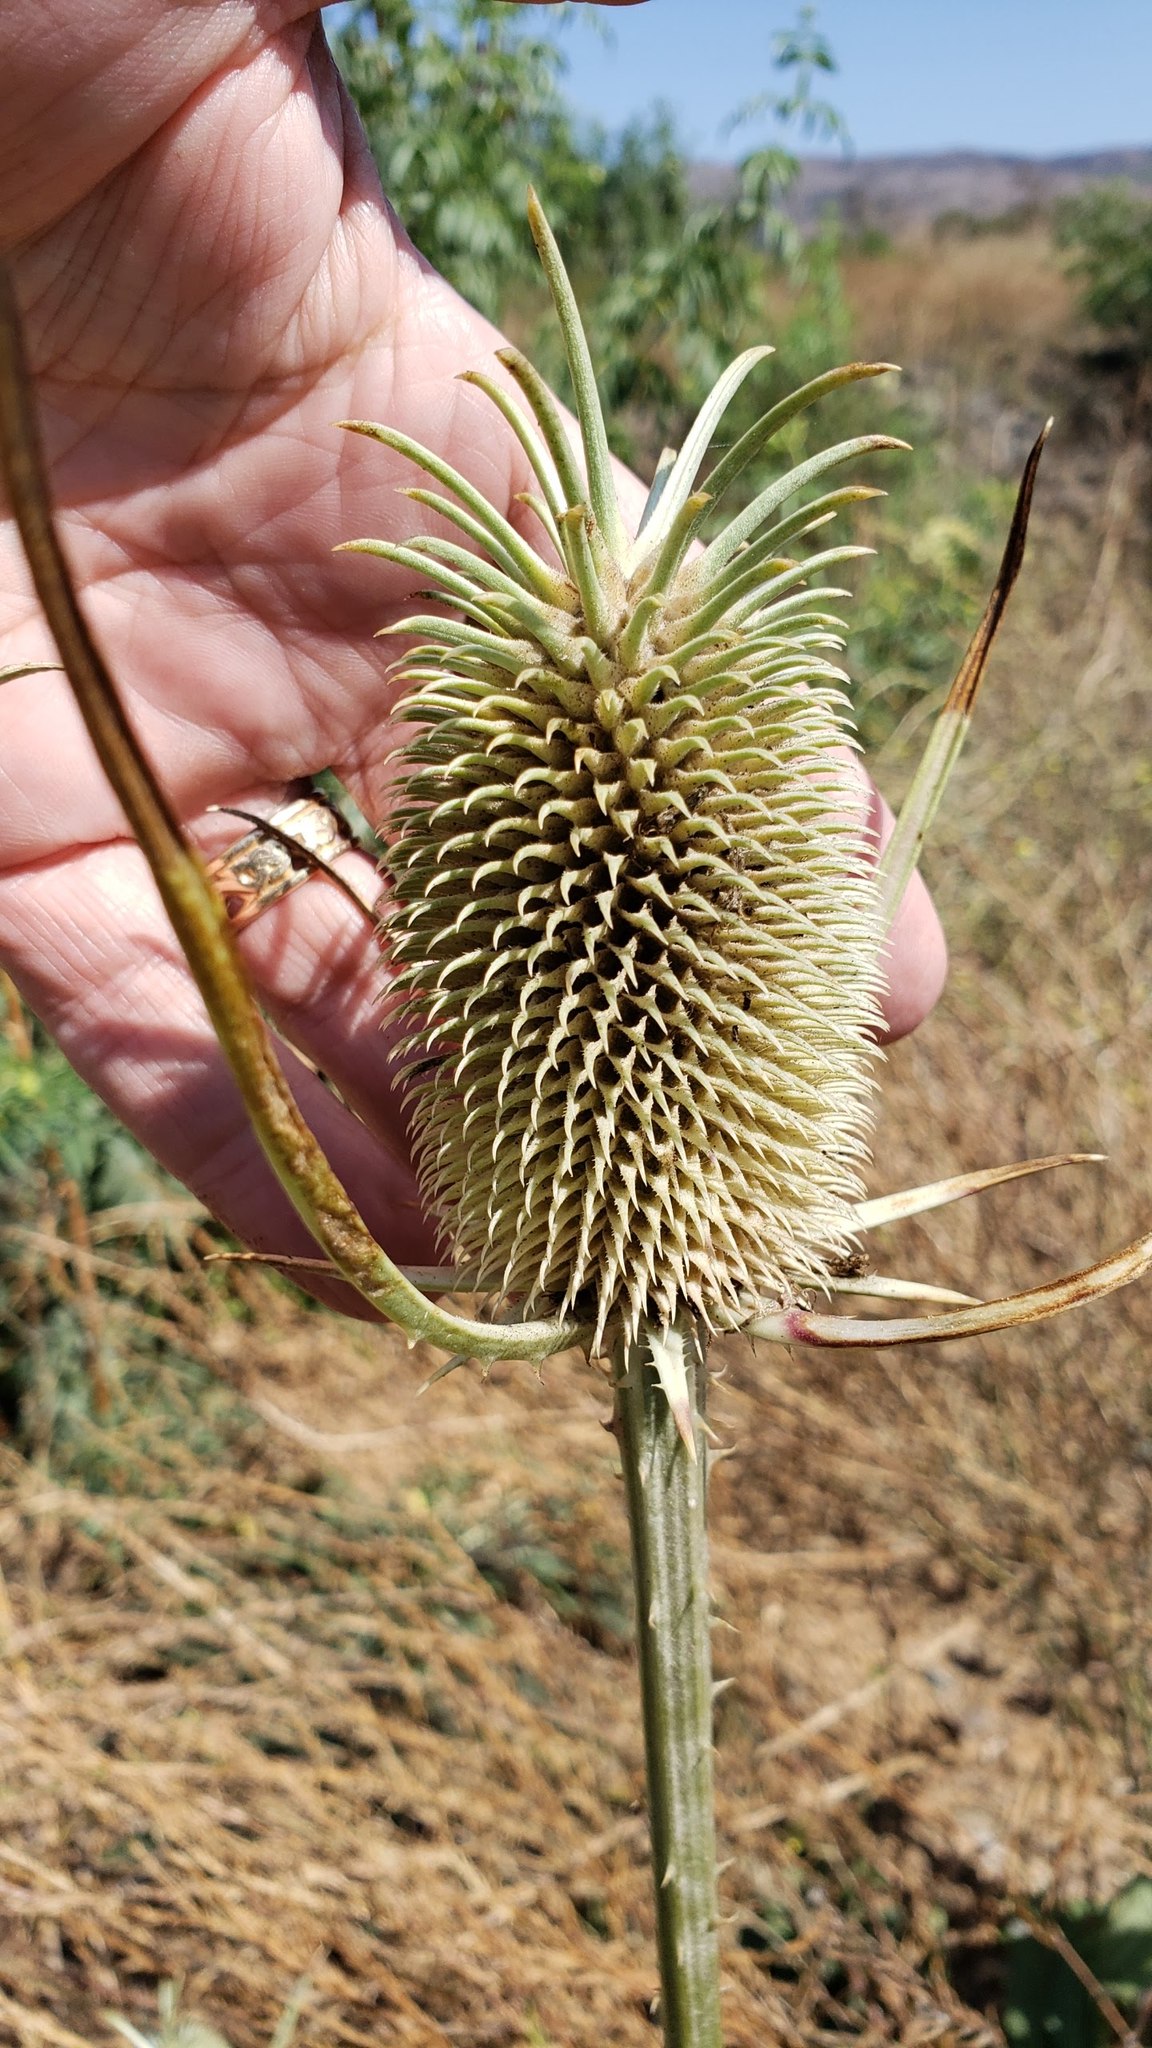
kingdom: Plantae
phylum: Tracheophyta
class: Magnoliopsida
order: Dipsacales
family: Caprifoliaceae
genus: Dipsacus
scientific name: Dipsacus sativus
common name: Fuller's teasel
